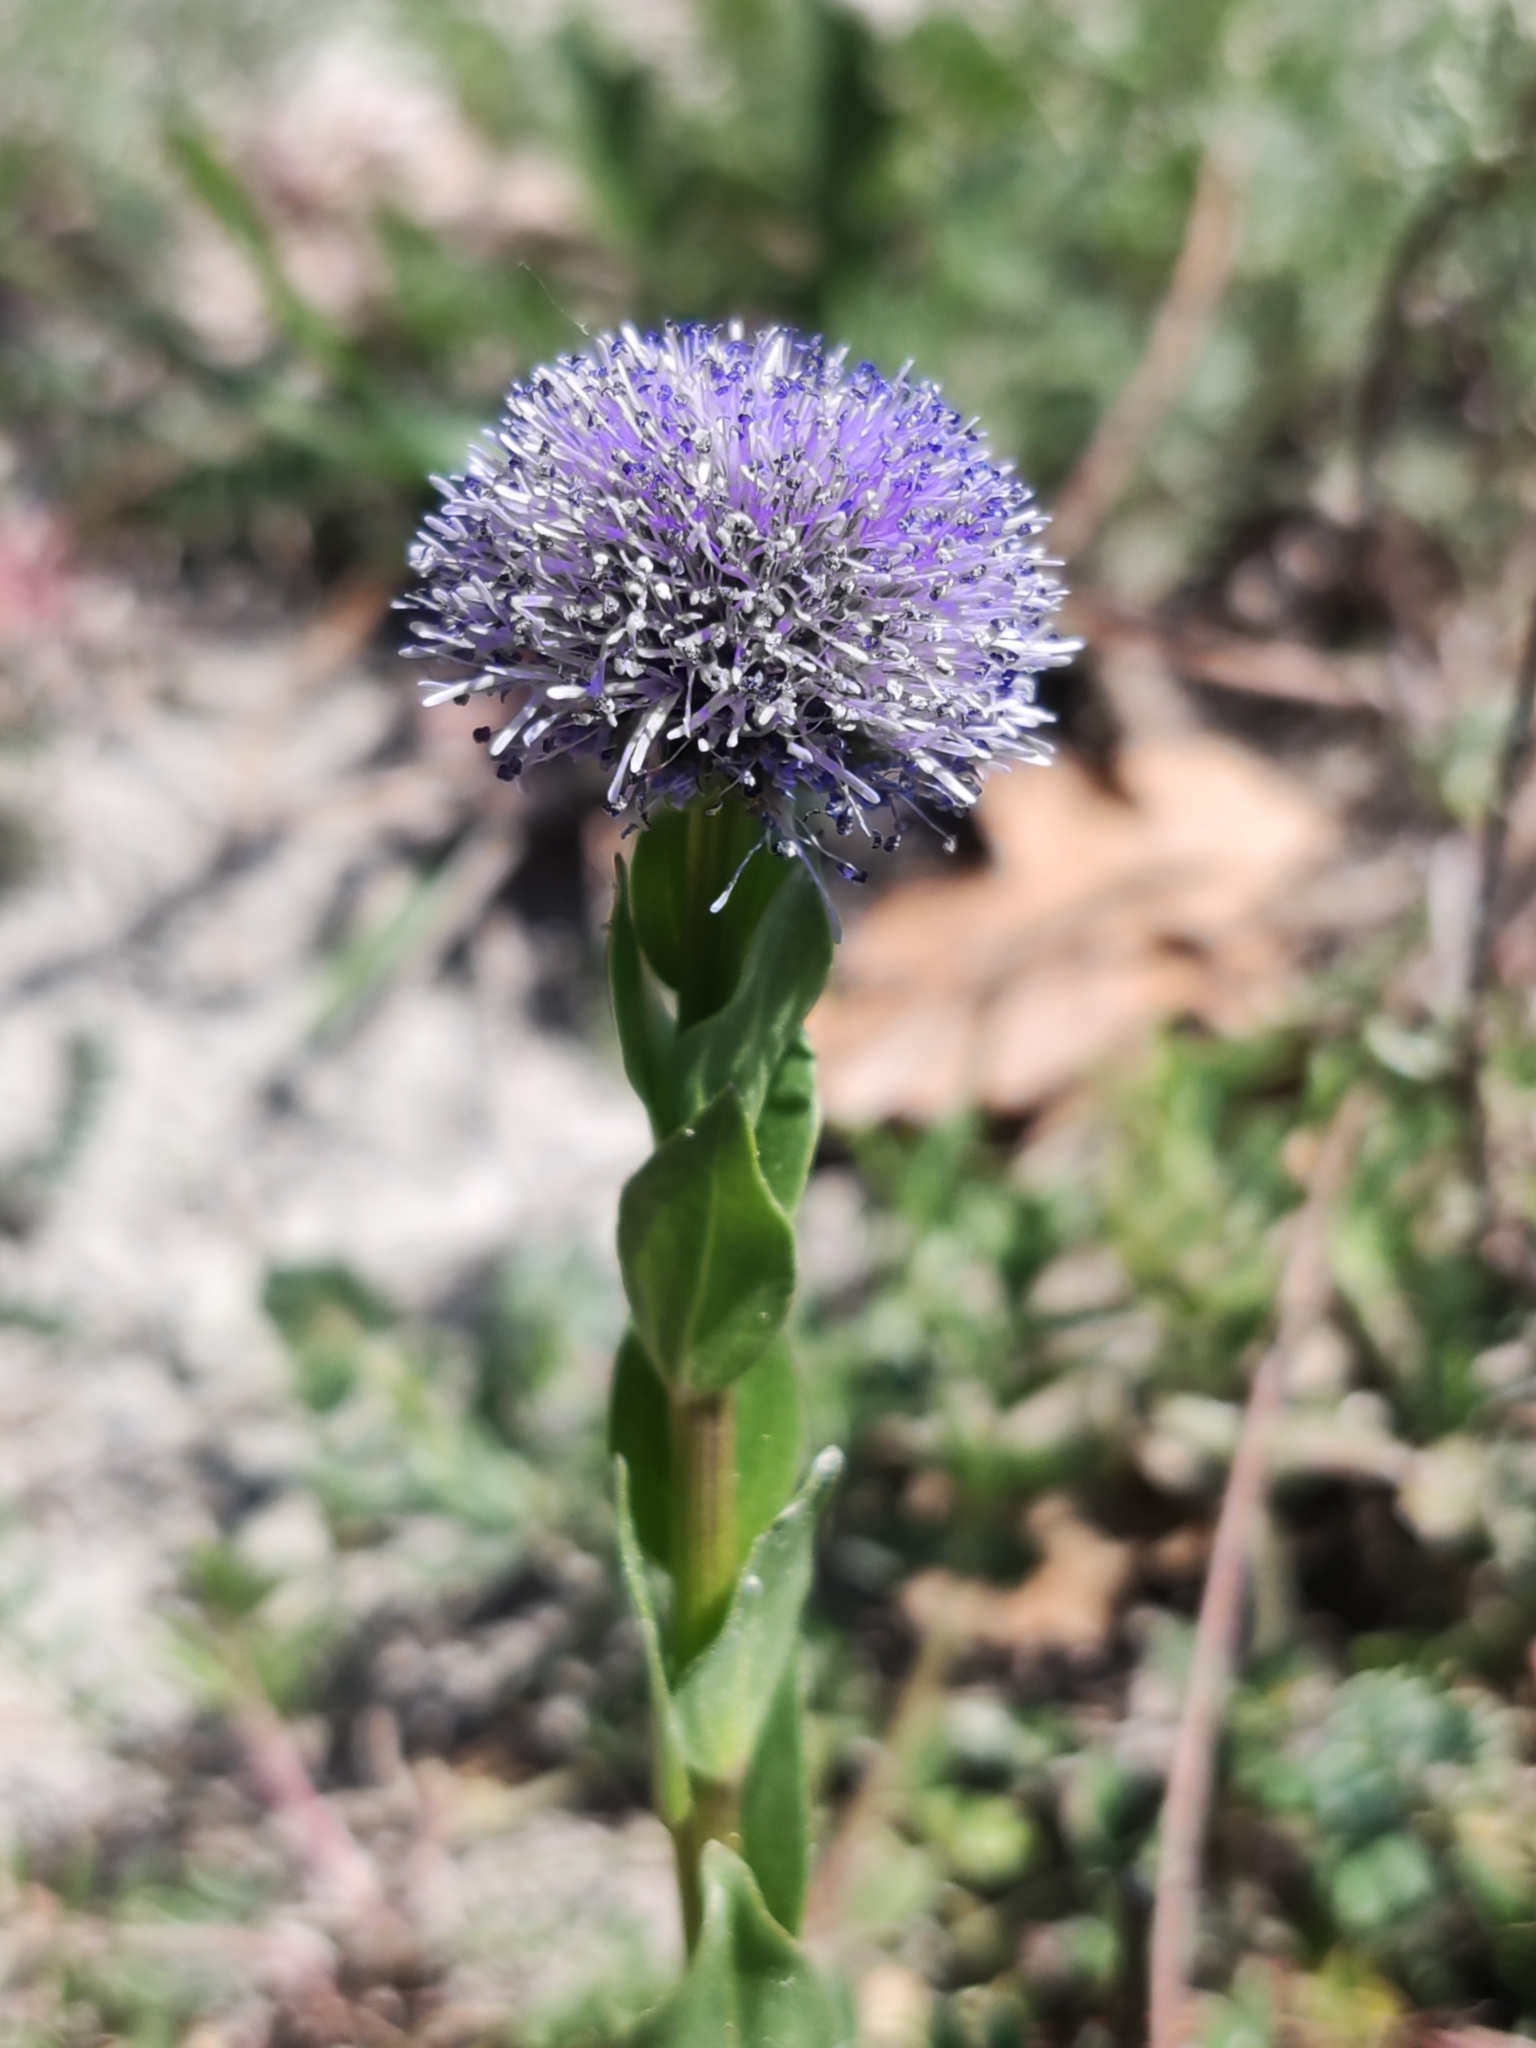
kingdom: Plantae
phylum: Tracheophyta
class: Magnoliopsida
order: Lamiales
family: Plantaginaceae
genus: Globularia
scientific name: Globularia bisnagarica
